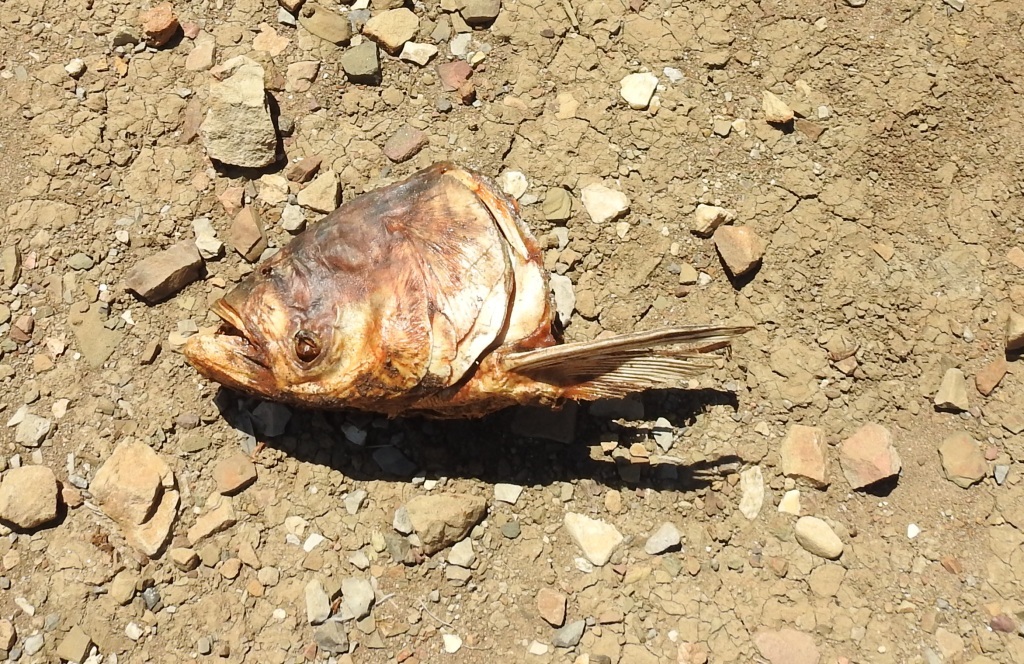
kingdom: Animalia
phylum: Chordata
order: Cypriniformes
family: Cyprinidae
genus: Hypophthalmichthys
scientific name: Hypophthalmichthys nobilis
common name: Bighead carp
